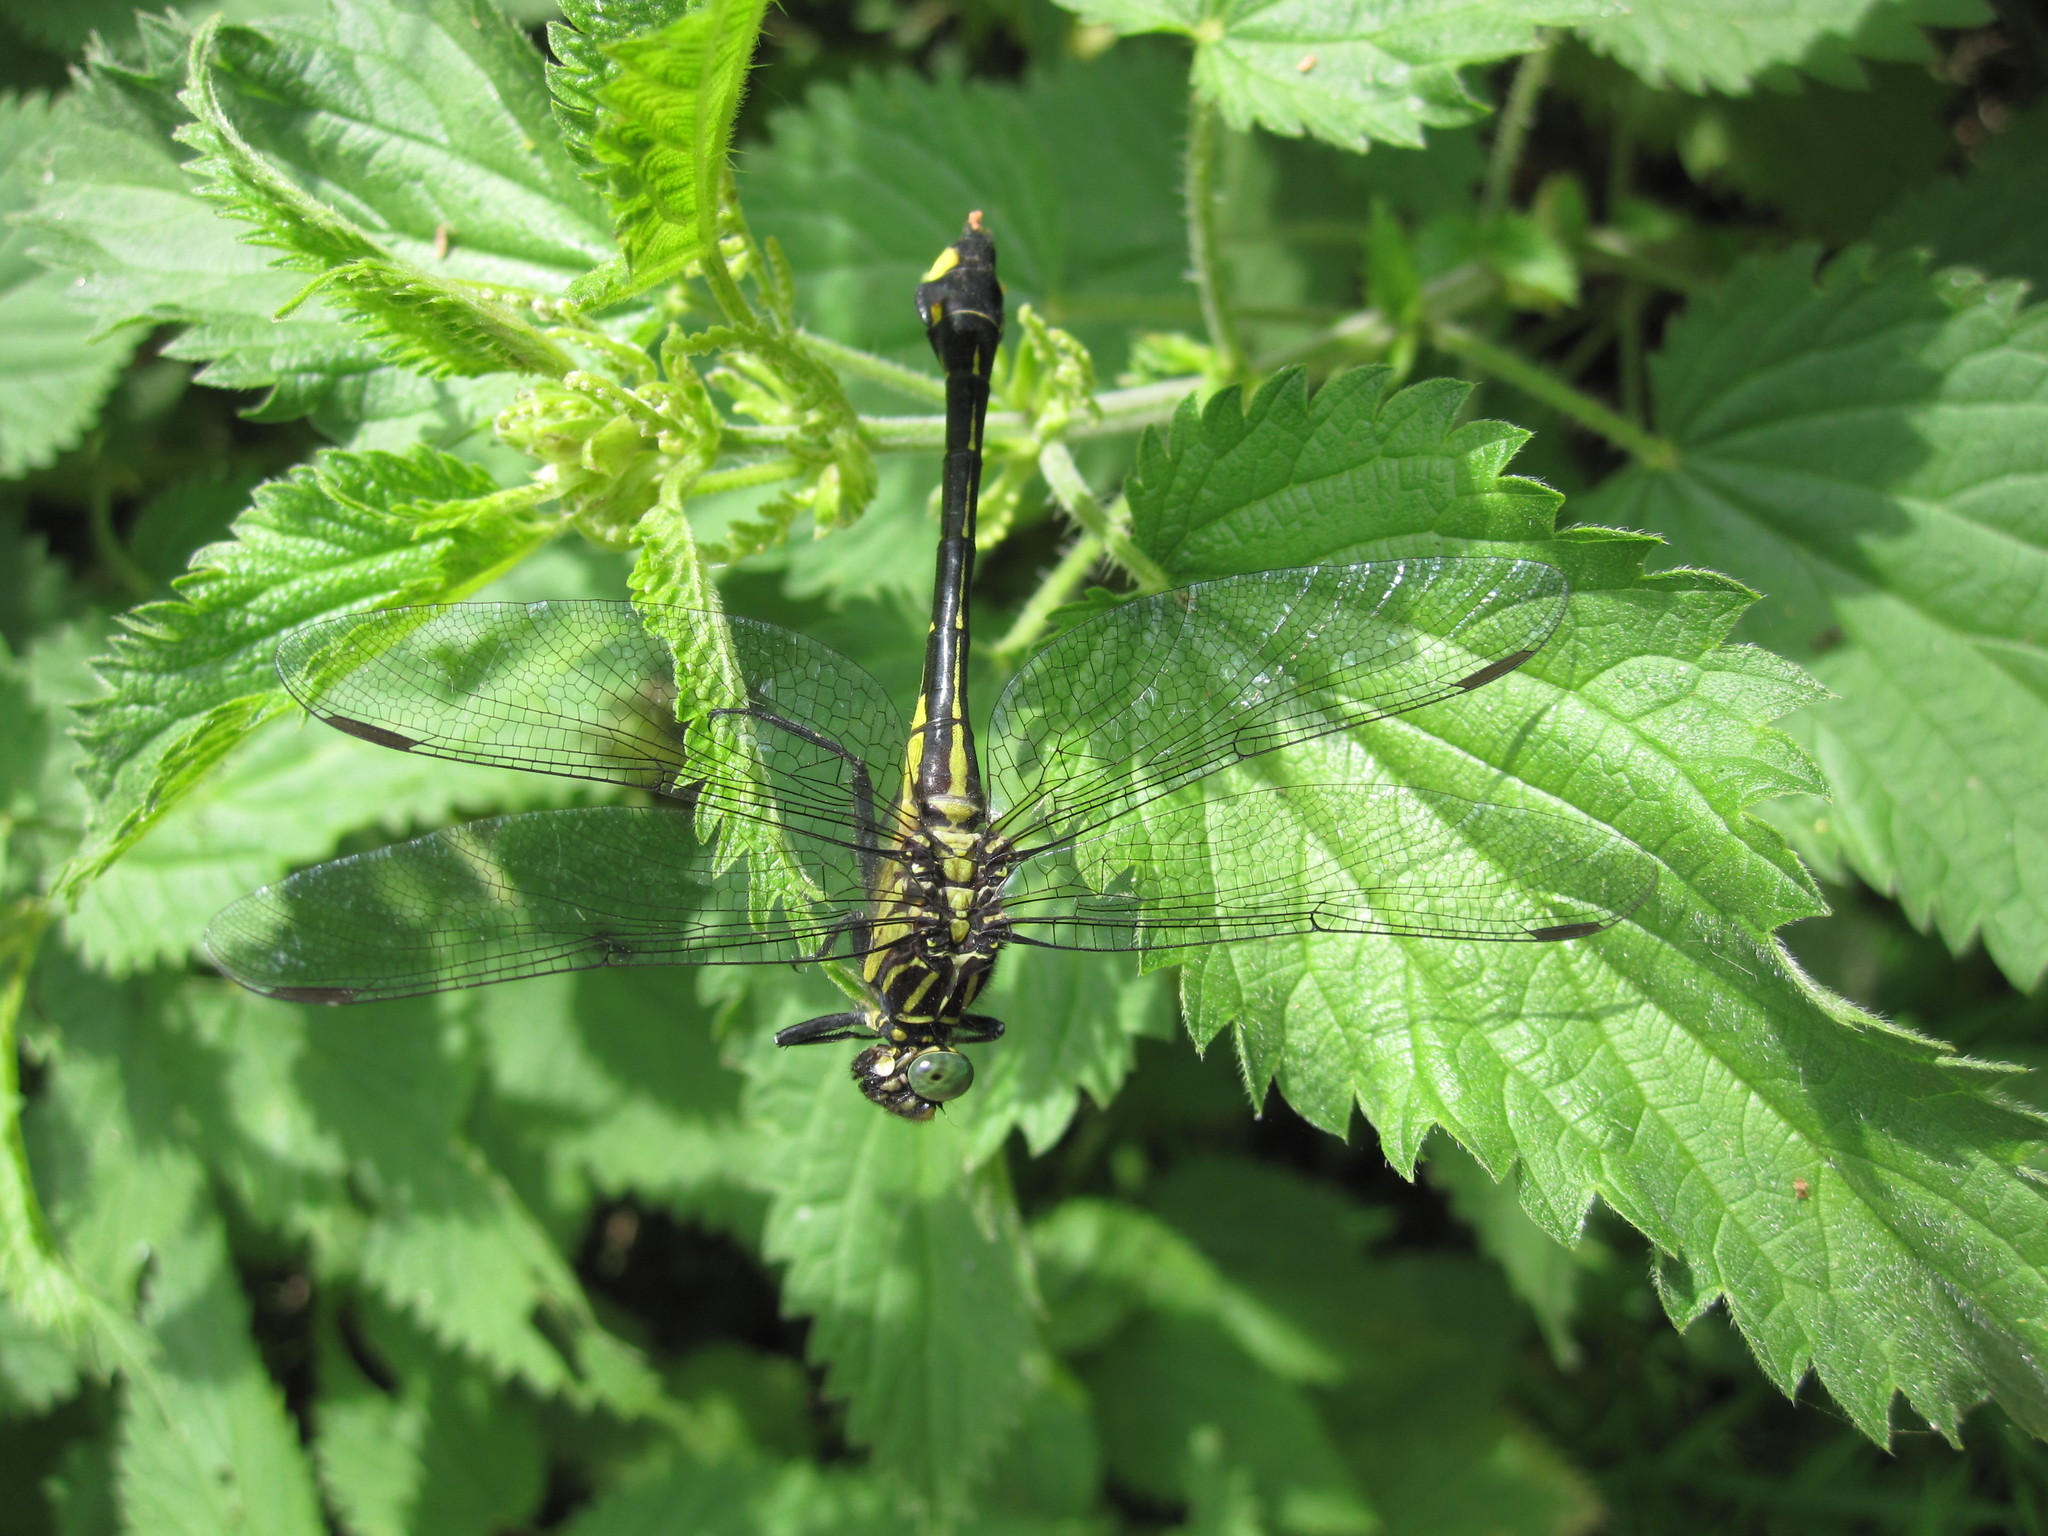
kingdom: Animalia
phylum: Arthropoda
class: Insecta
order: Odonata
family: Gomphidae
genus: Gomphurus
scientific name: Gomphurus vastus
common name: Cobra clubtail
